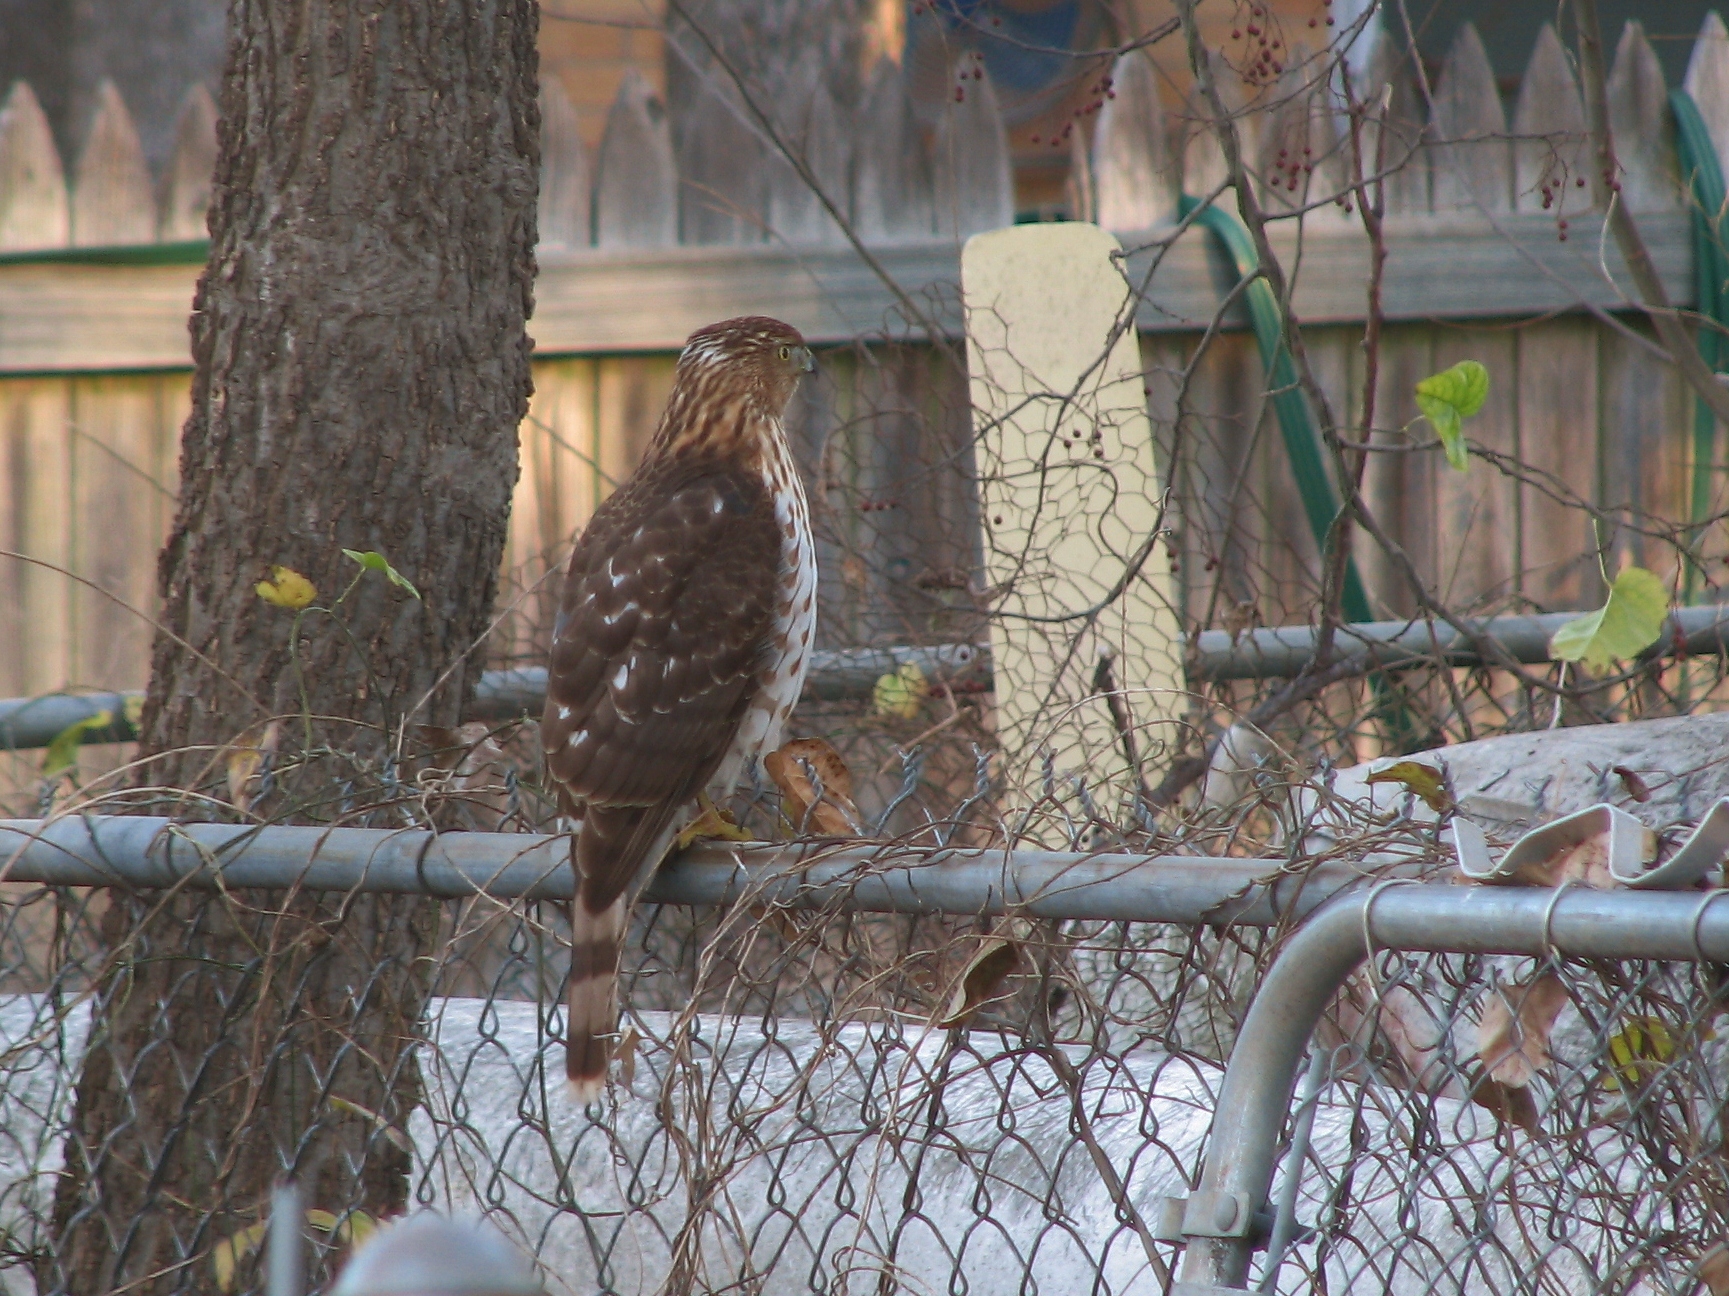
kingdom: Animalia
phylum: Chordata
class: Aves
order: Accipitriformes
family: Accipitridae
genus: Accipiter
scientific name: Accipiter cooperii
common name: Cooper's hawk
